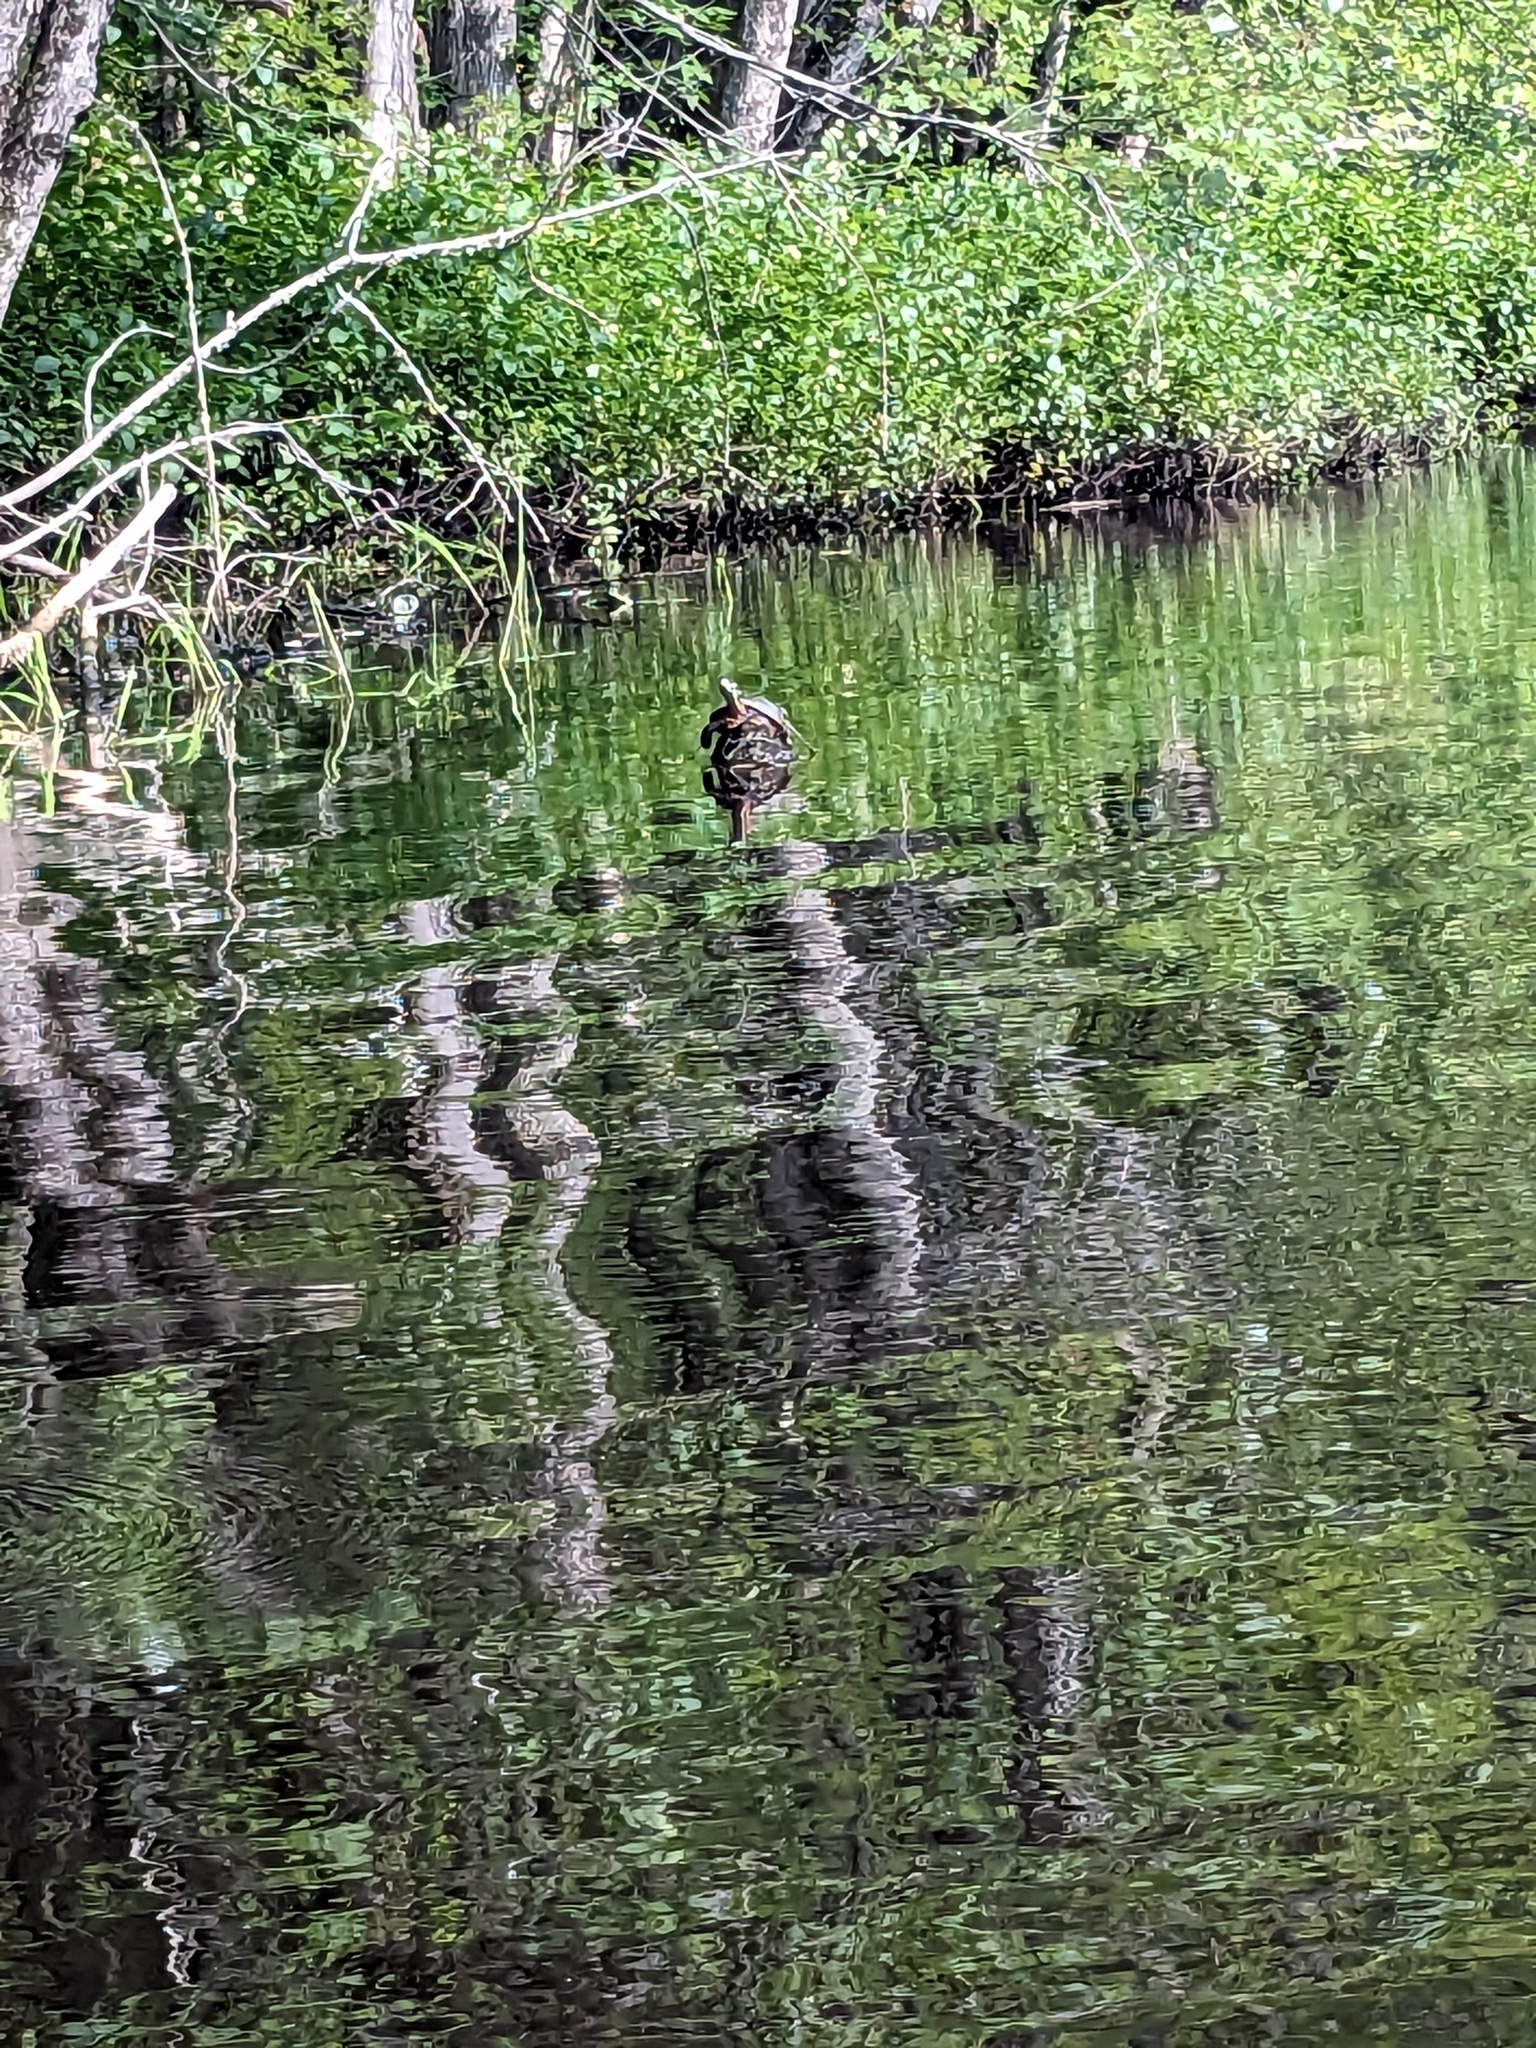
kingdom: Animalia
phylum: Chordata
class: Testudines
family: Emydidae
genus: Chrysemys
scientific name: Chrysemys picta
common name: Painted turtle
